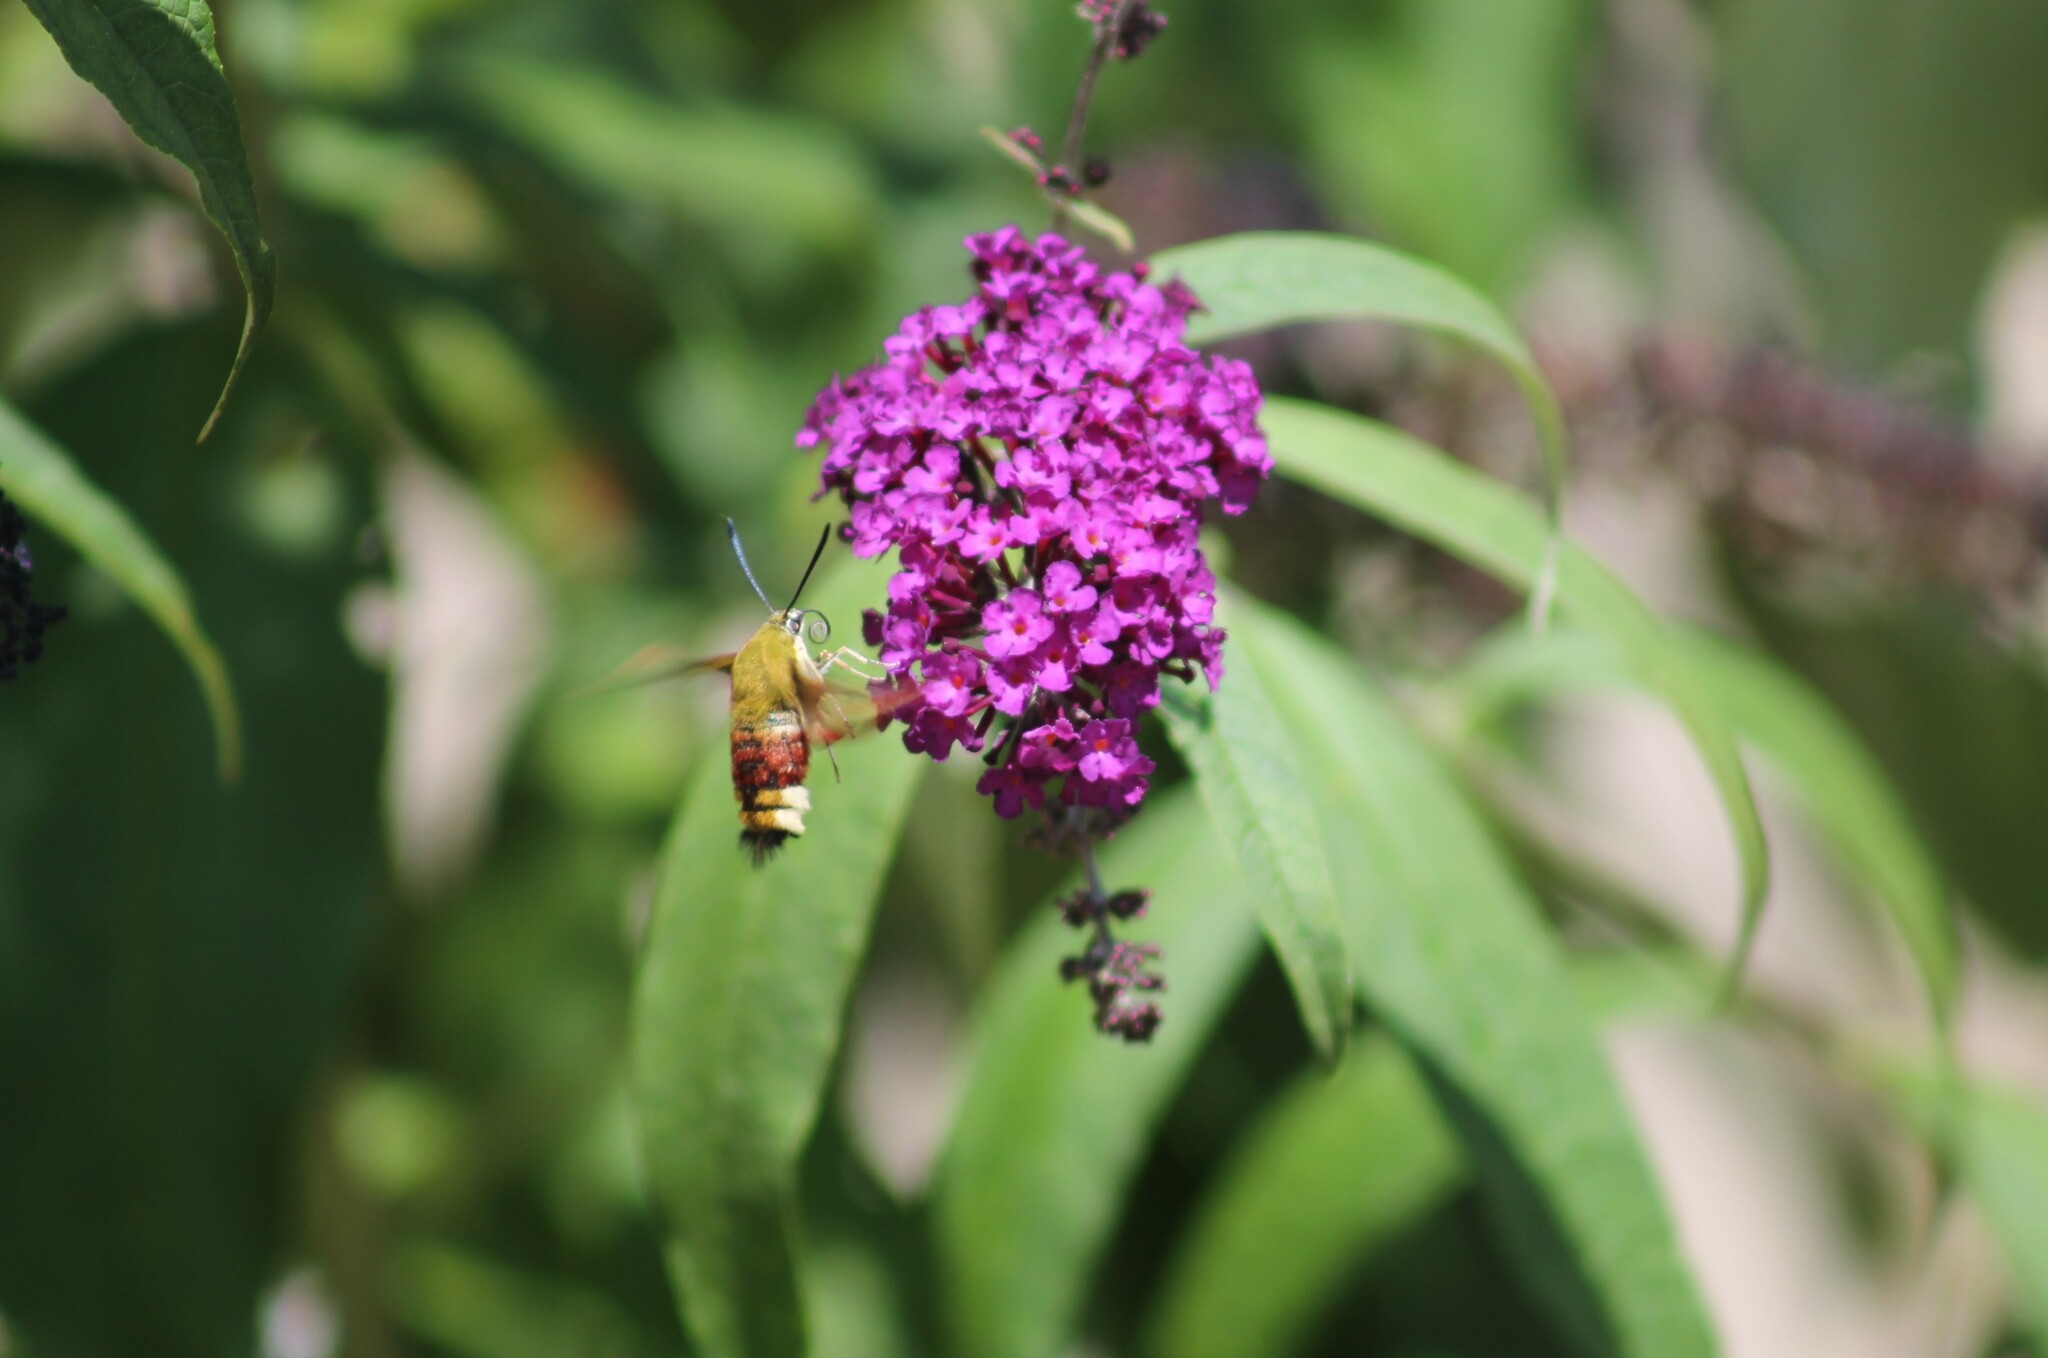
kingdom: Animalia
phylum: Arthropoda
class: Insecta
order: Lepidoptera
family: Sphingidae
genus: Hemaris
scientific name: Hemaris fuciformis
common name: Broad-bordered bee hawk-moth
